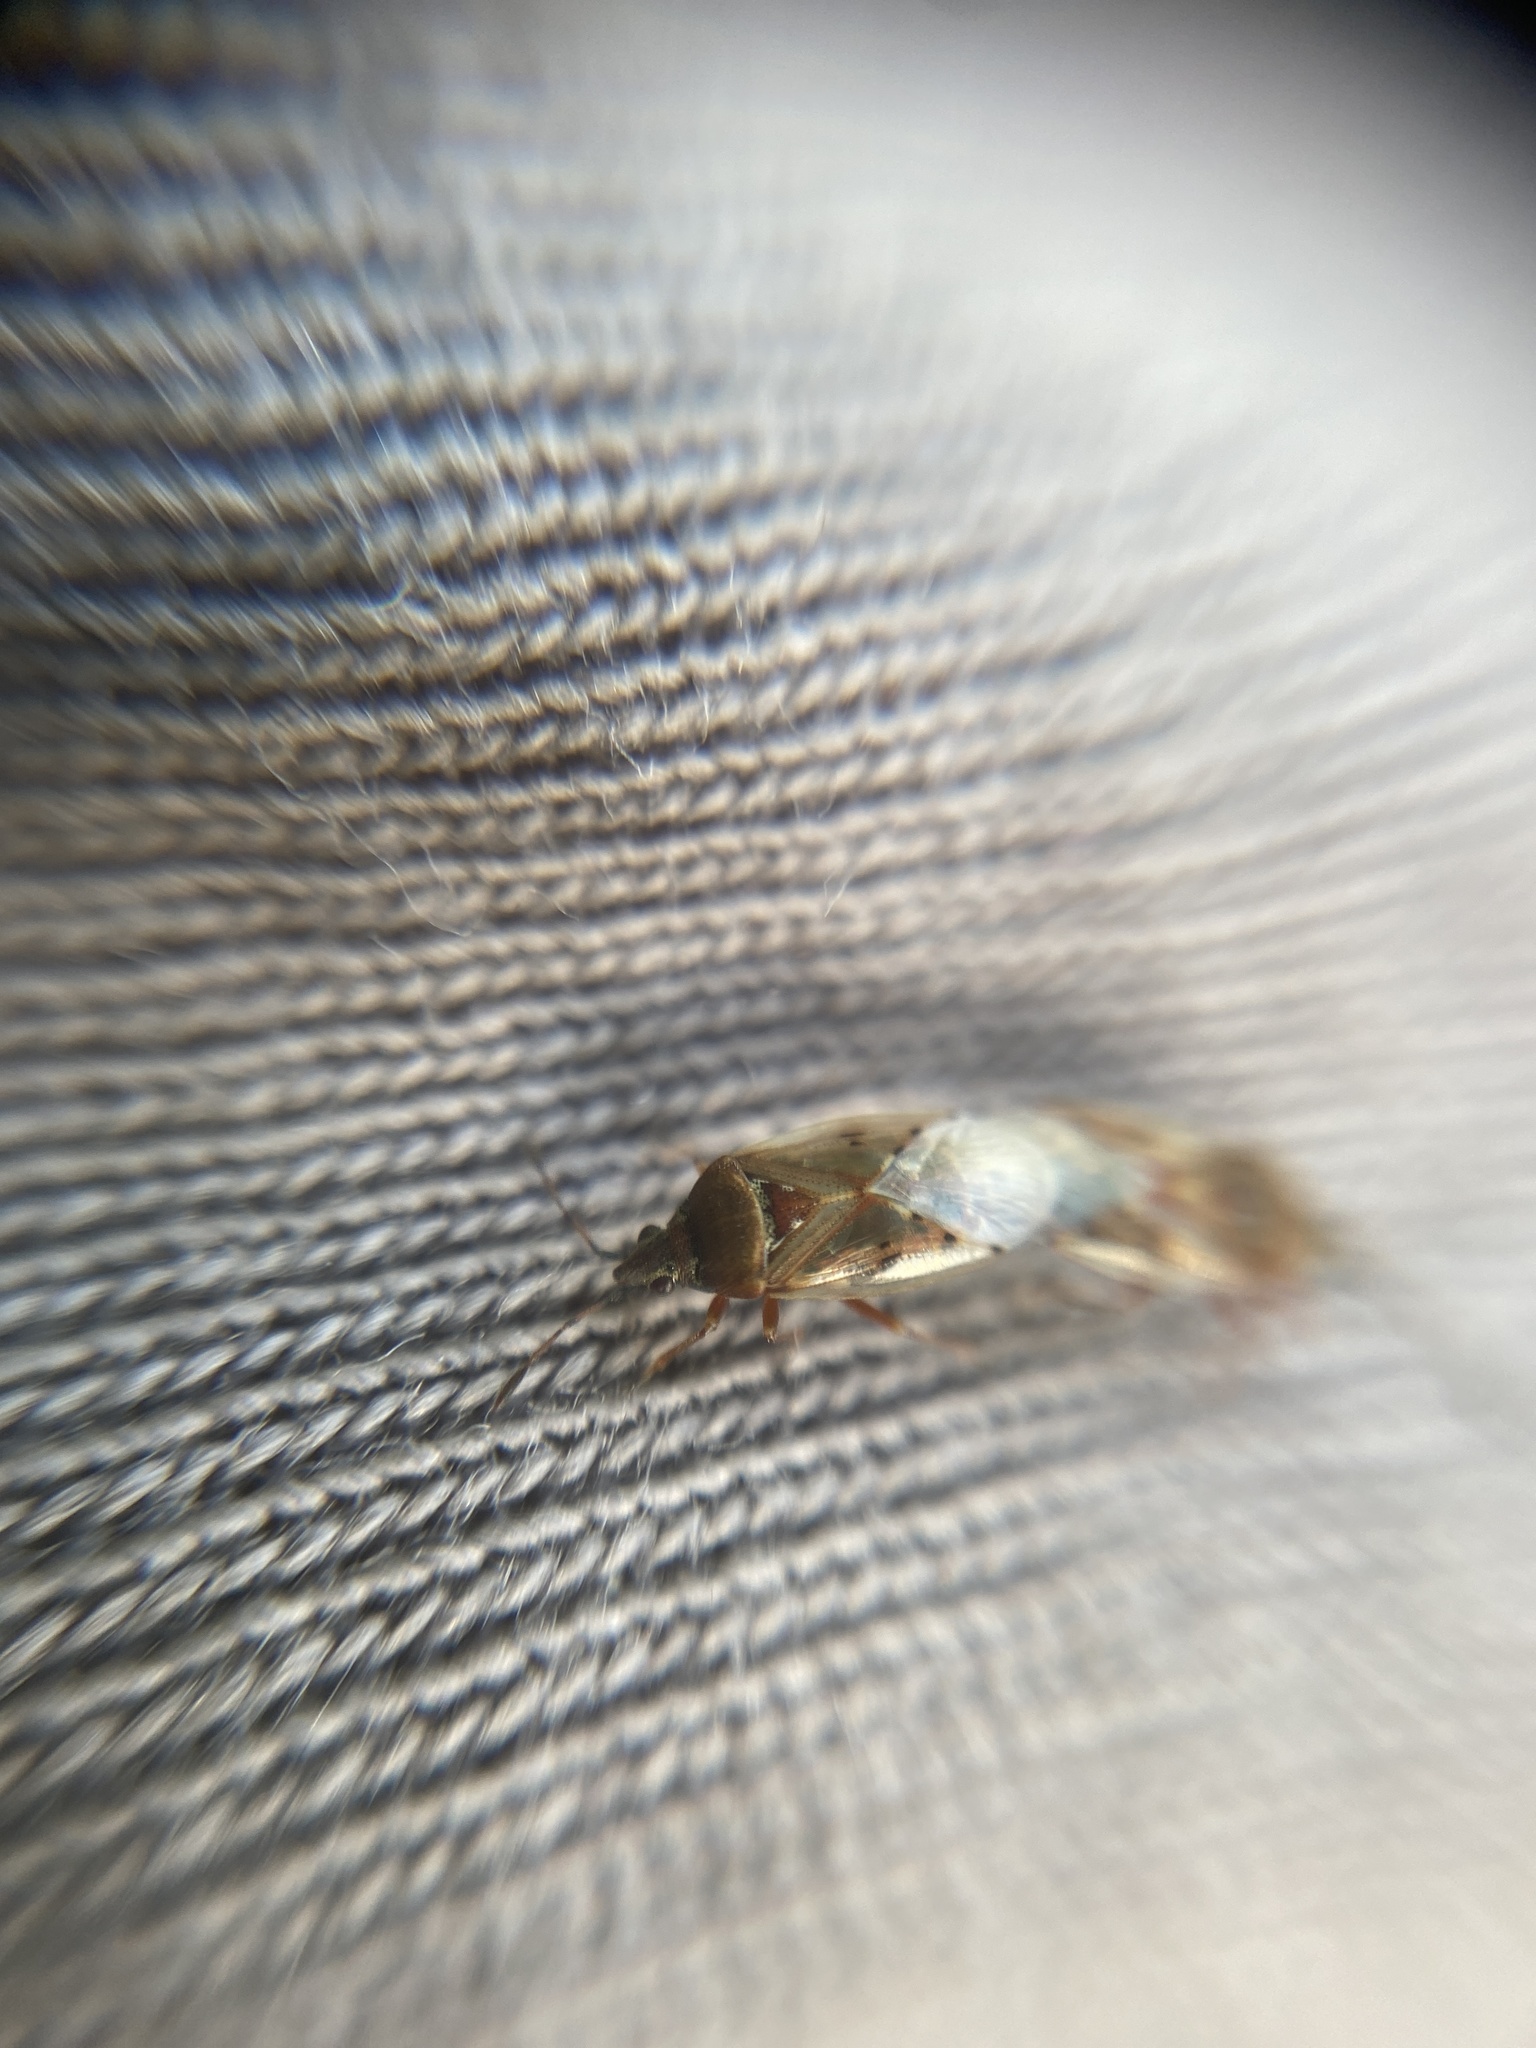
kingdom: Animalia
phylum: Arthropoda
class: Insecta
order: Hemiptera
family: Lygaeidae
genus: Kleidocerys
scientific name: Kleidocerys resedae
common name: Birch catkin bug
